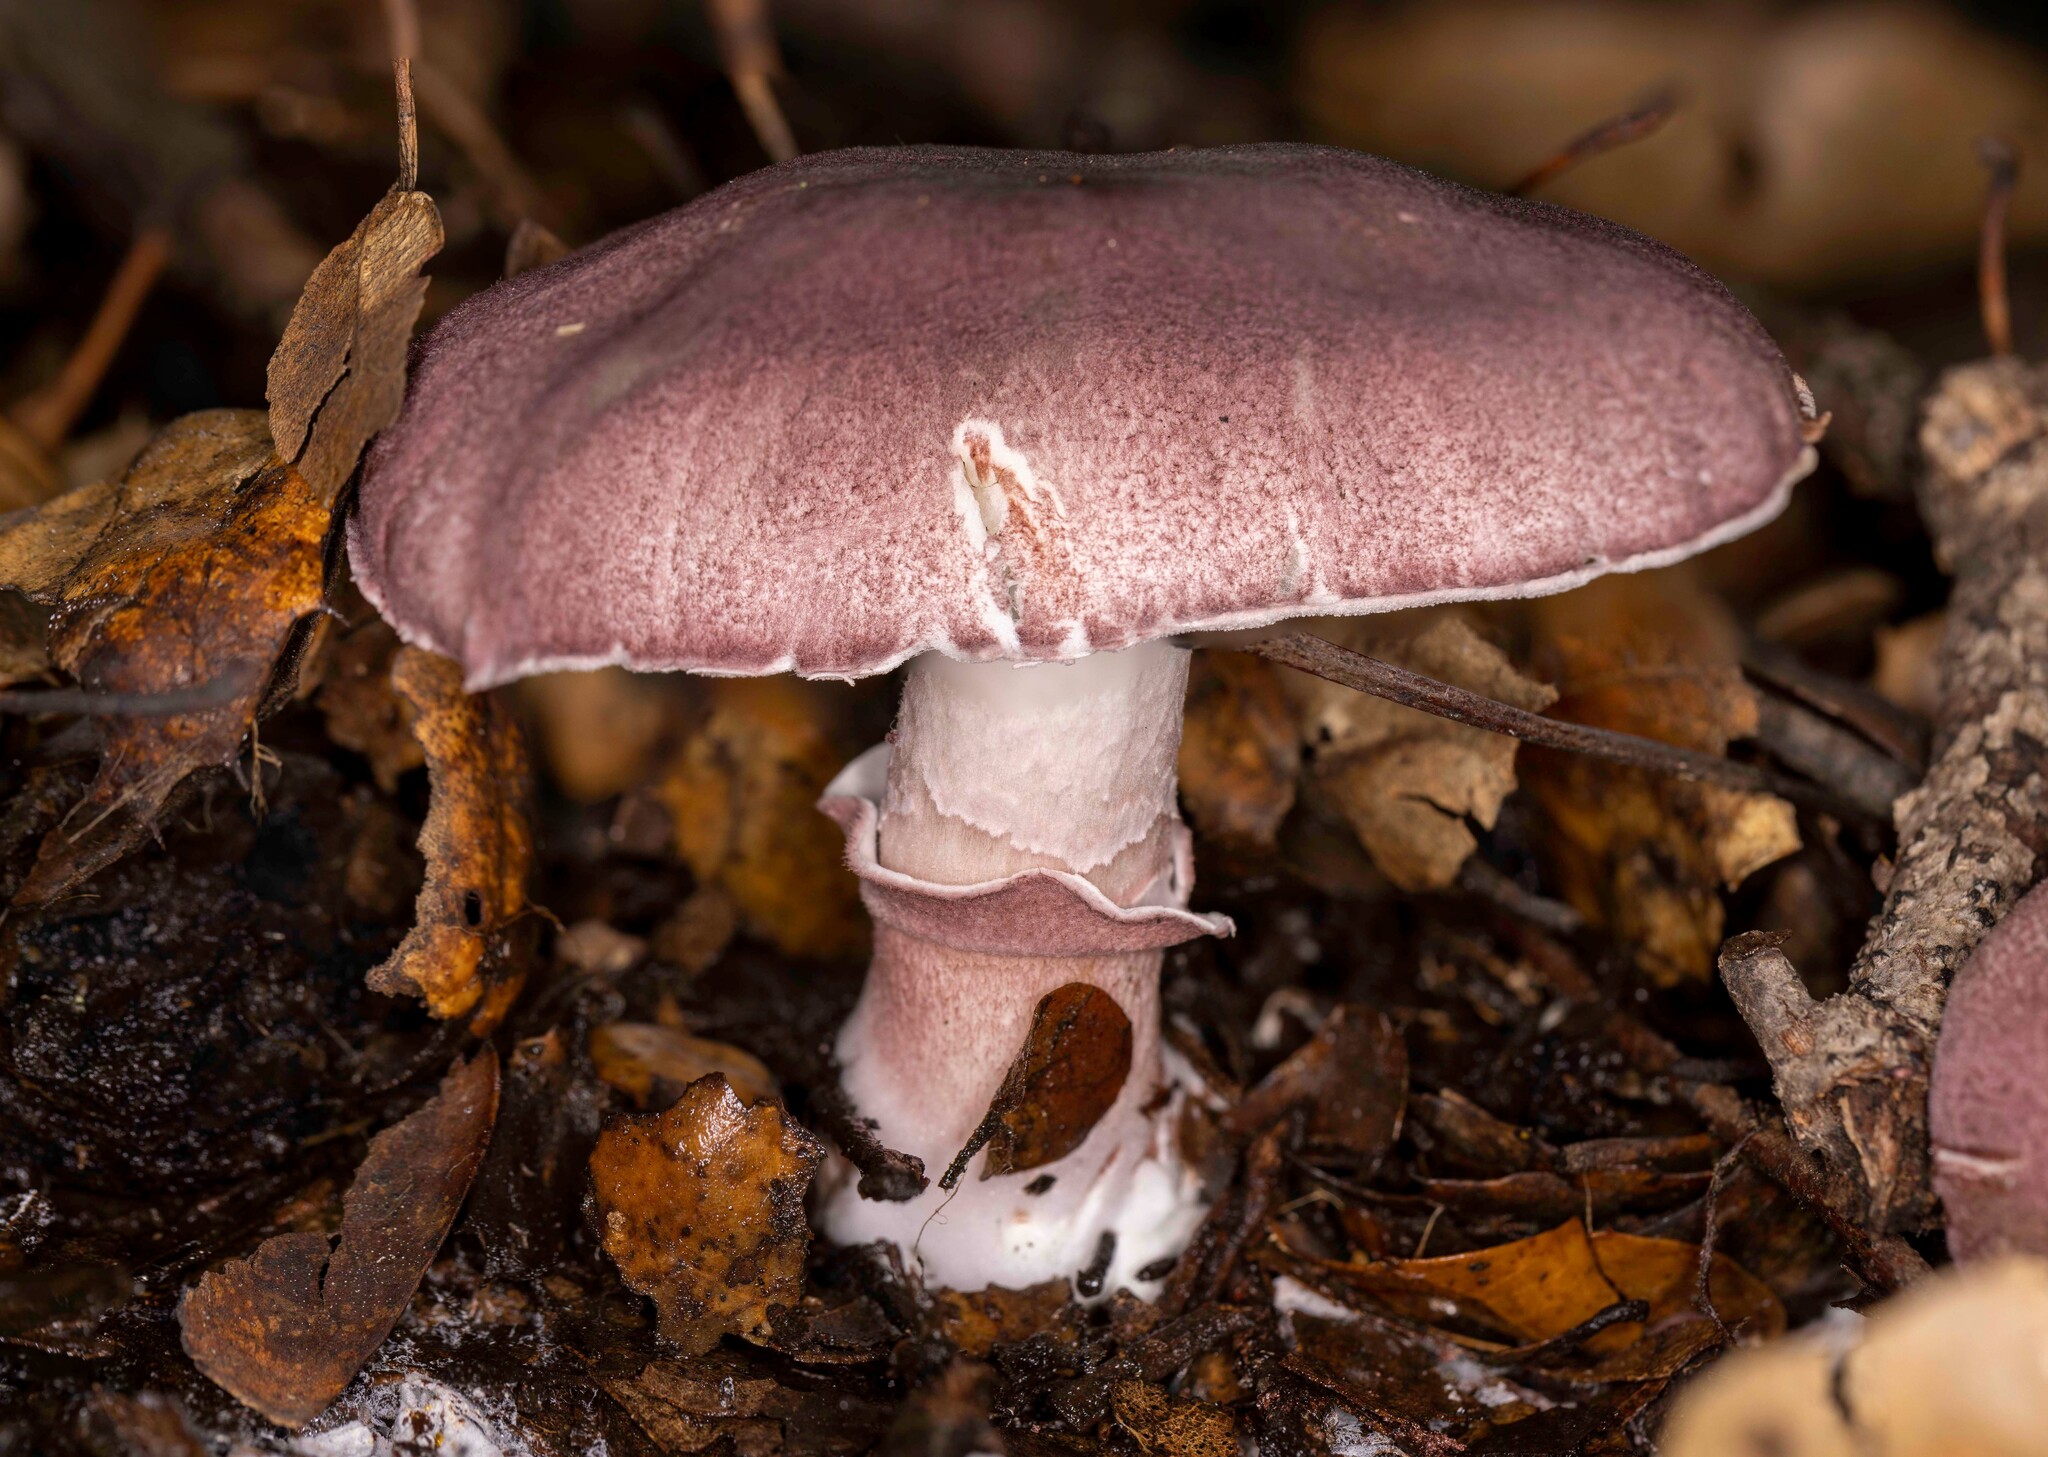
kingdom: Fungi
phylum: Basidiomycota
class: Agaricomycetes
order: Agaricales
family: Agaricaceae
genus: Lepiota
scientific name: Lepiota decorata
